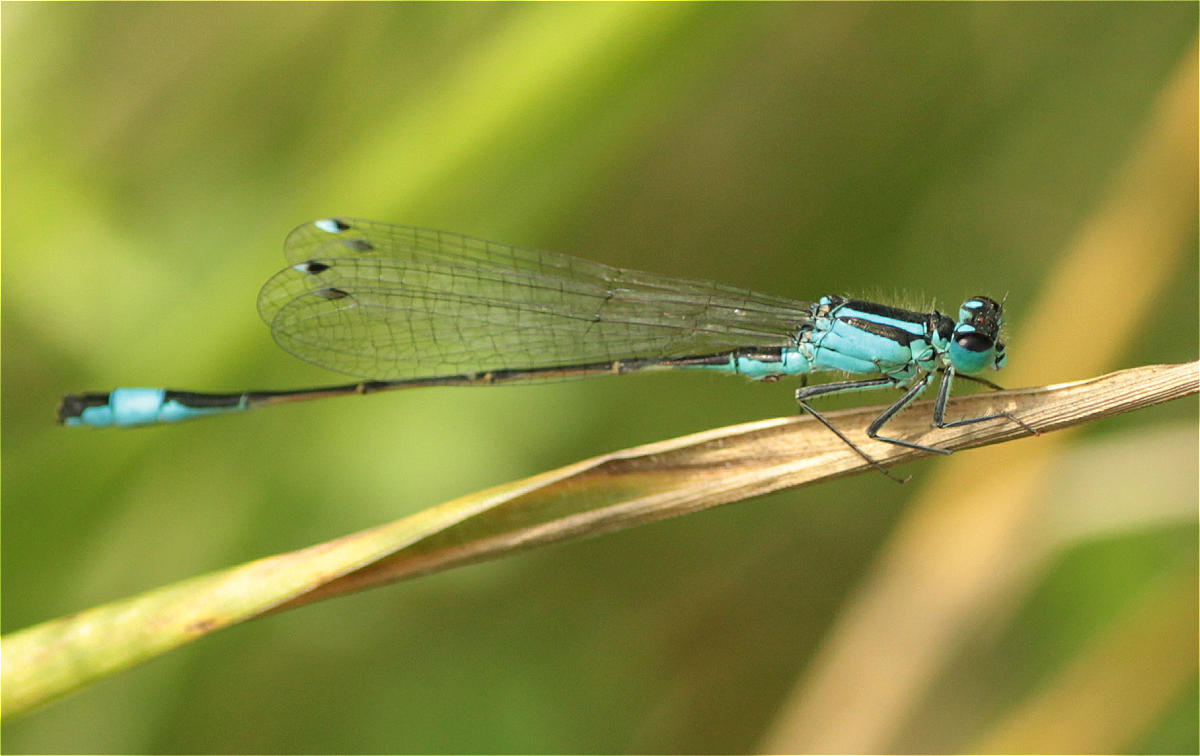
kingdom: Animalia
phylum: Arthropoda
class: Insecta
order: Odonata
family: Coenagrionidae
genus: Ischnura
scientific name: Ischnura elegans
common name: Blue-tailed damselfly
